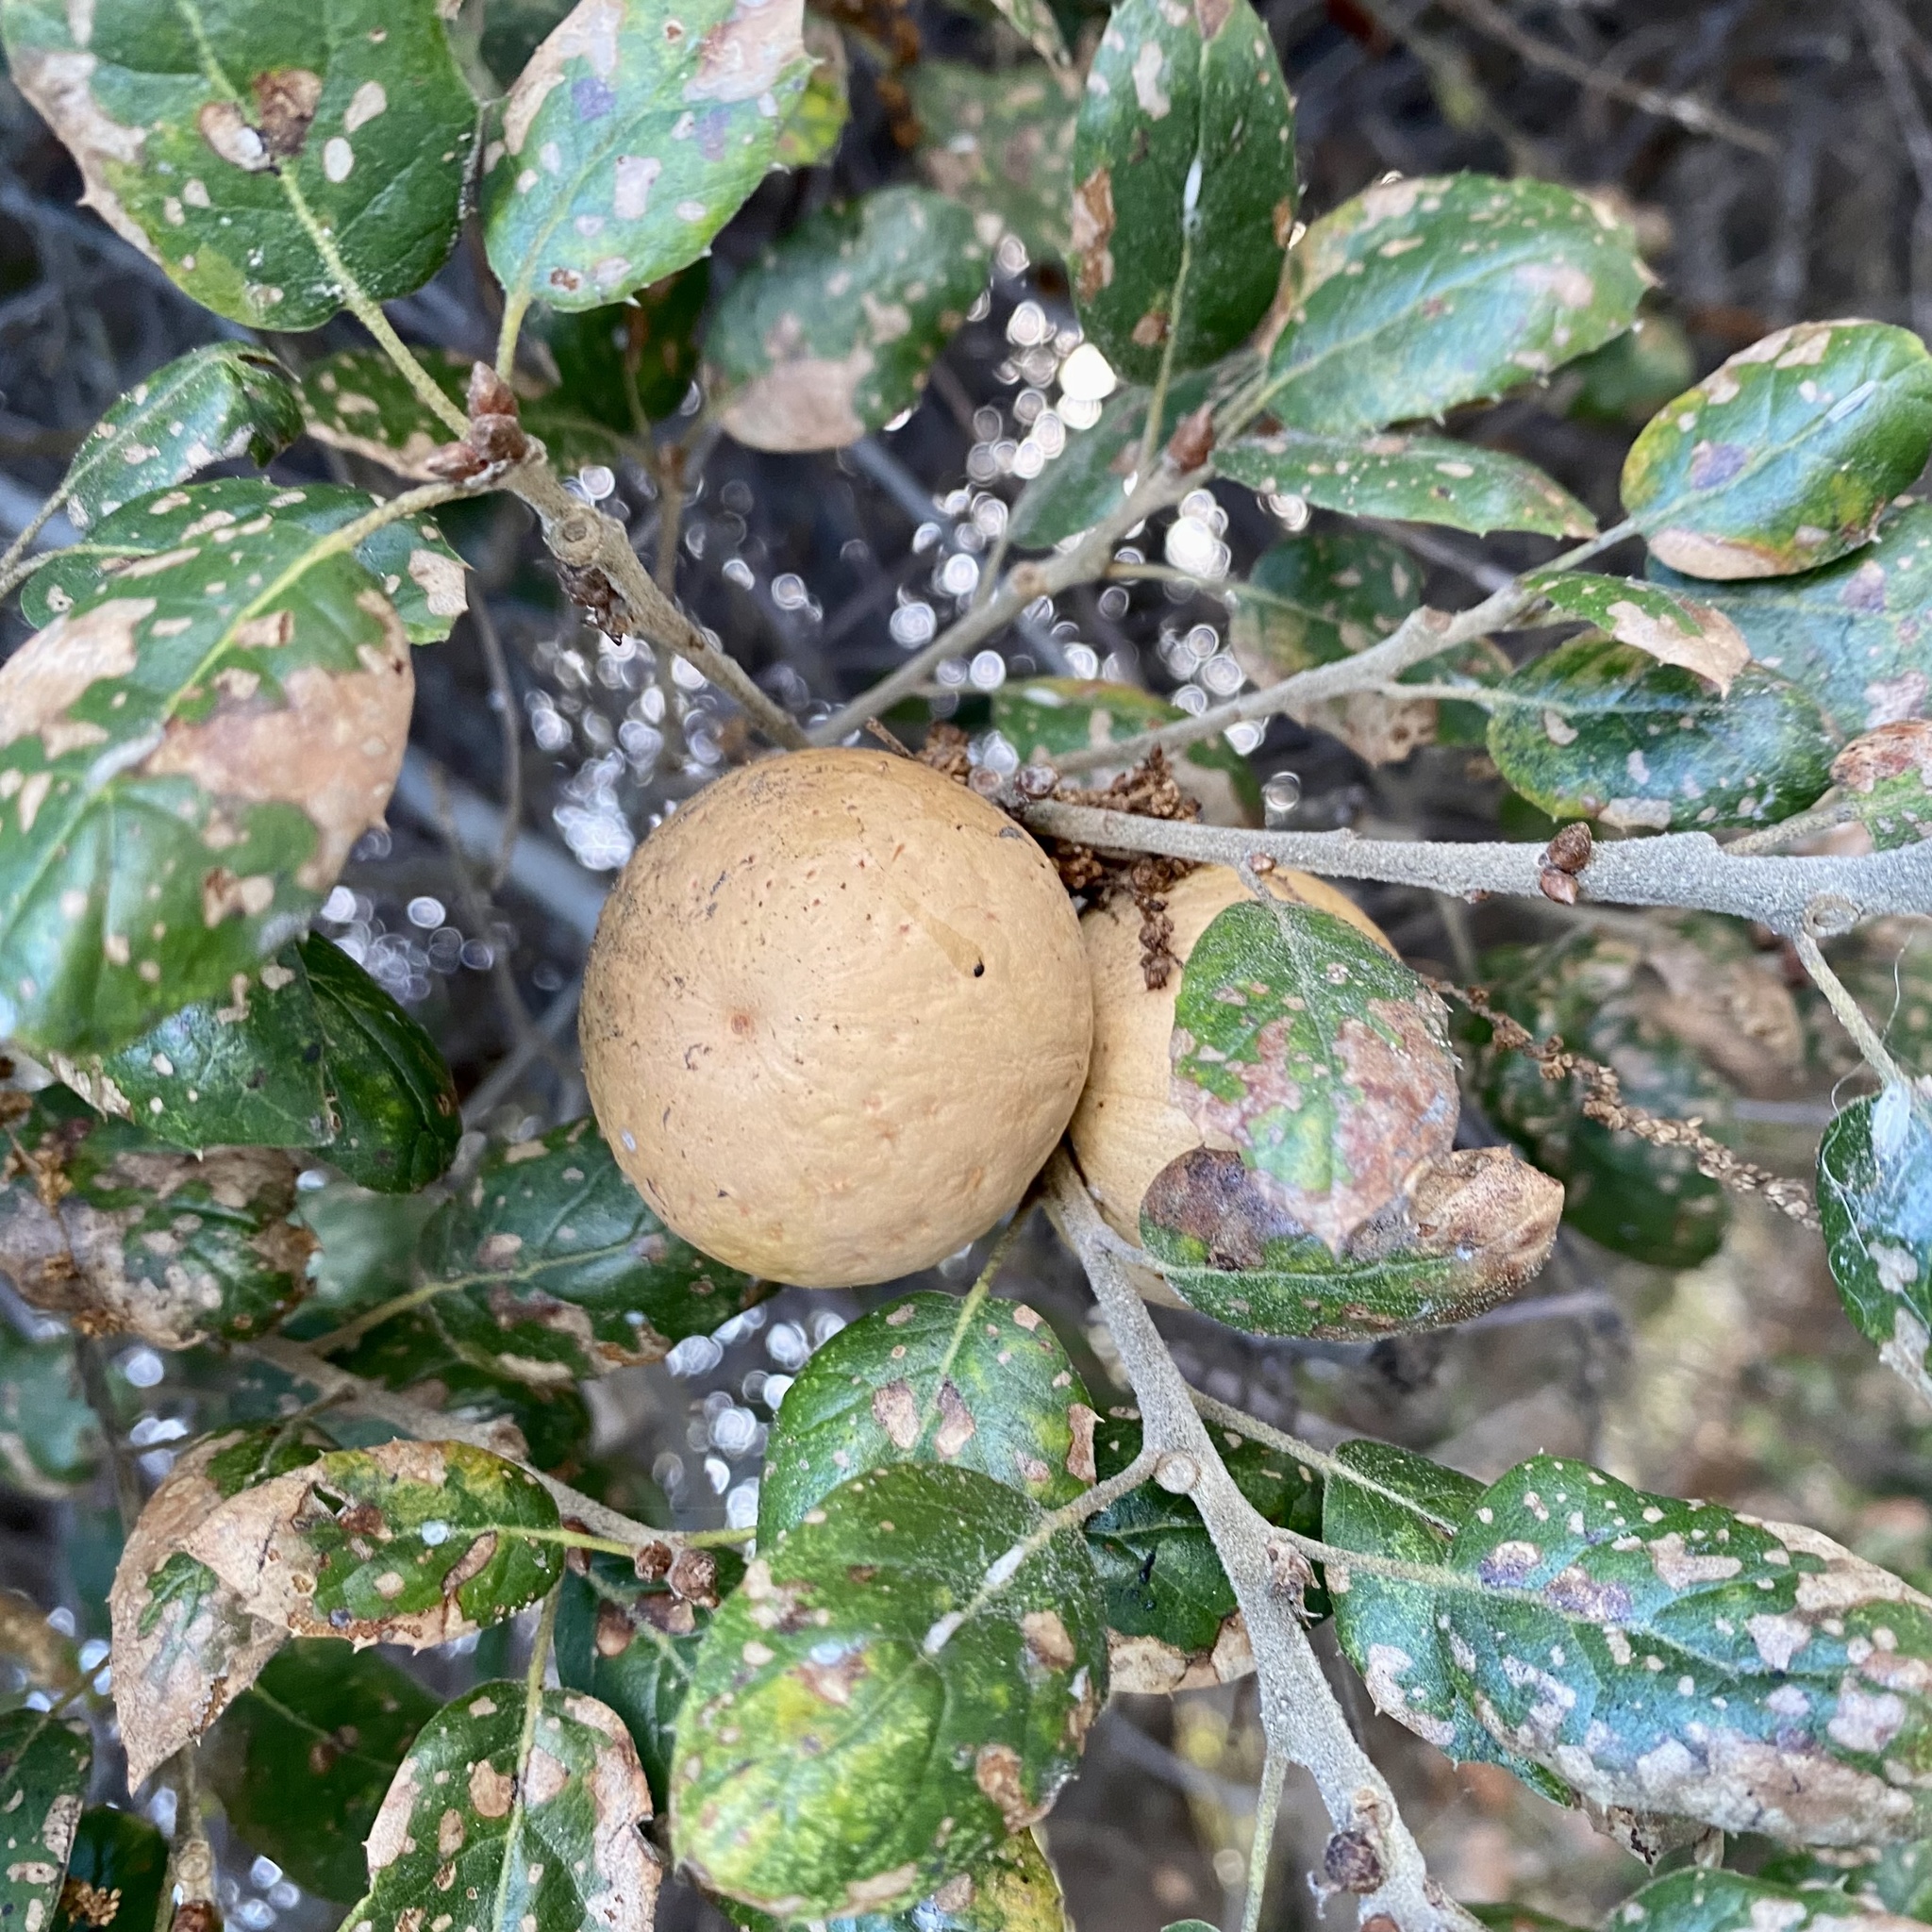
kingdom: Animalia
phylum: Arthropoda
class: Insecta
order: Hymenoptera
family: Cynipidae
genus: Amphibolips
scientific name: Amphibolips quercuspomiformis
